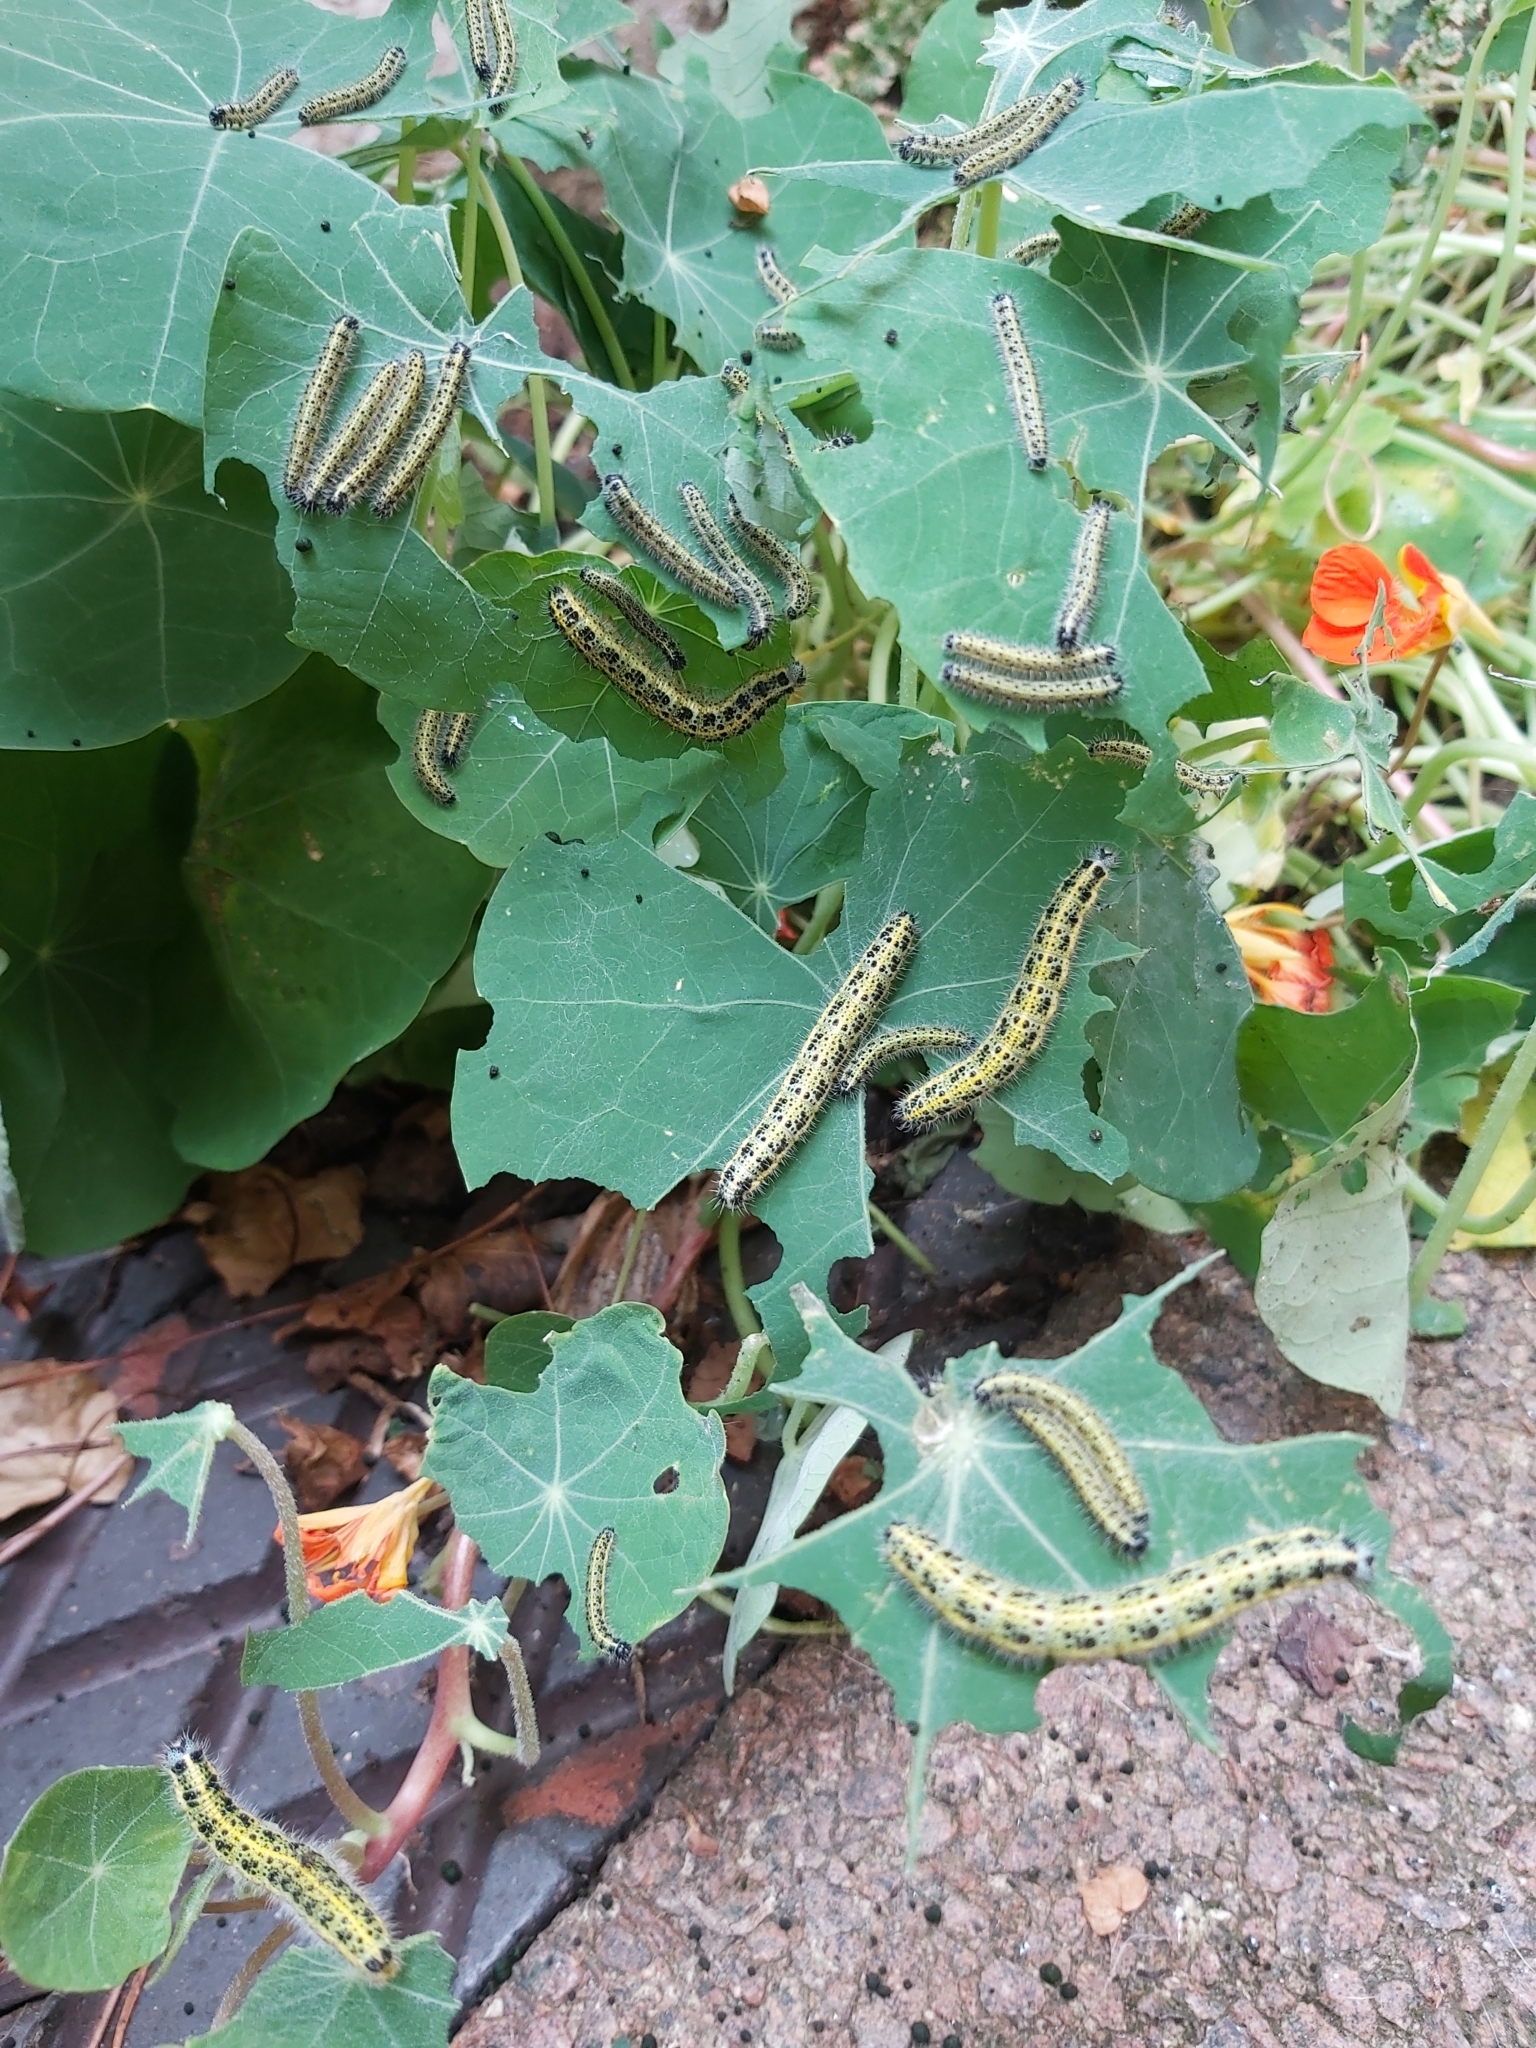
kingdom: Animalia
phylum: Arthropoda
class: Insecta
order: Lepidoptera
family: Pieridae
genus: Pieris
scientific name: Pieris brassicae
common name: Large white
